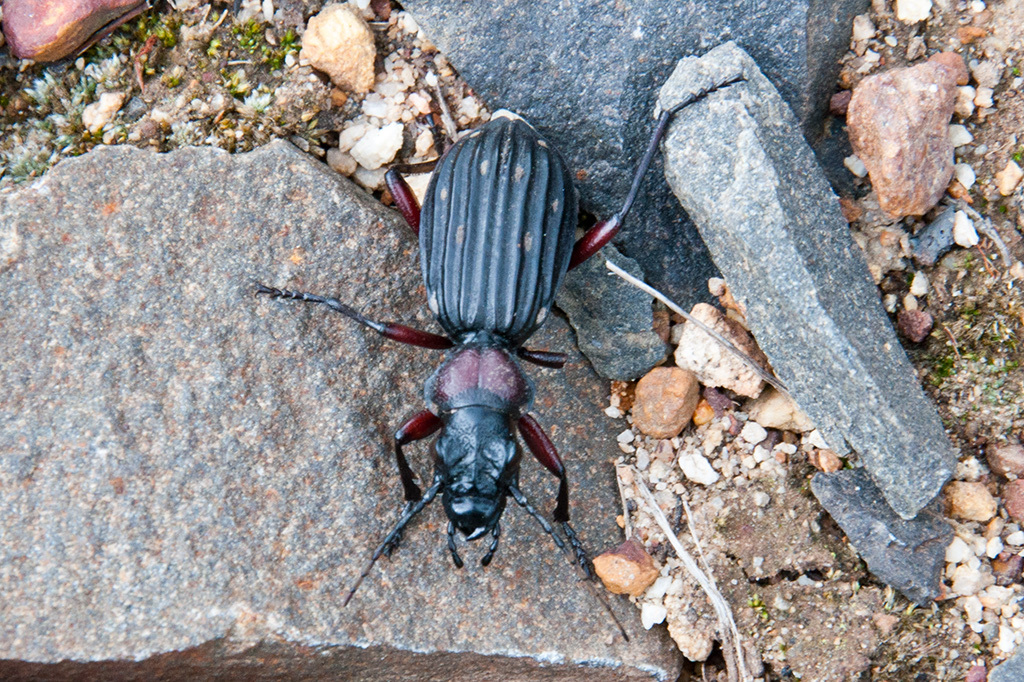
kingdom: Animalia
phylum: Arthropoda
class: Insecta
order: Coleoptera
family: Carabidae
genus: Anthia
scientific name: Anthia decemguttata
